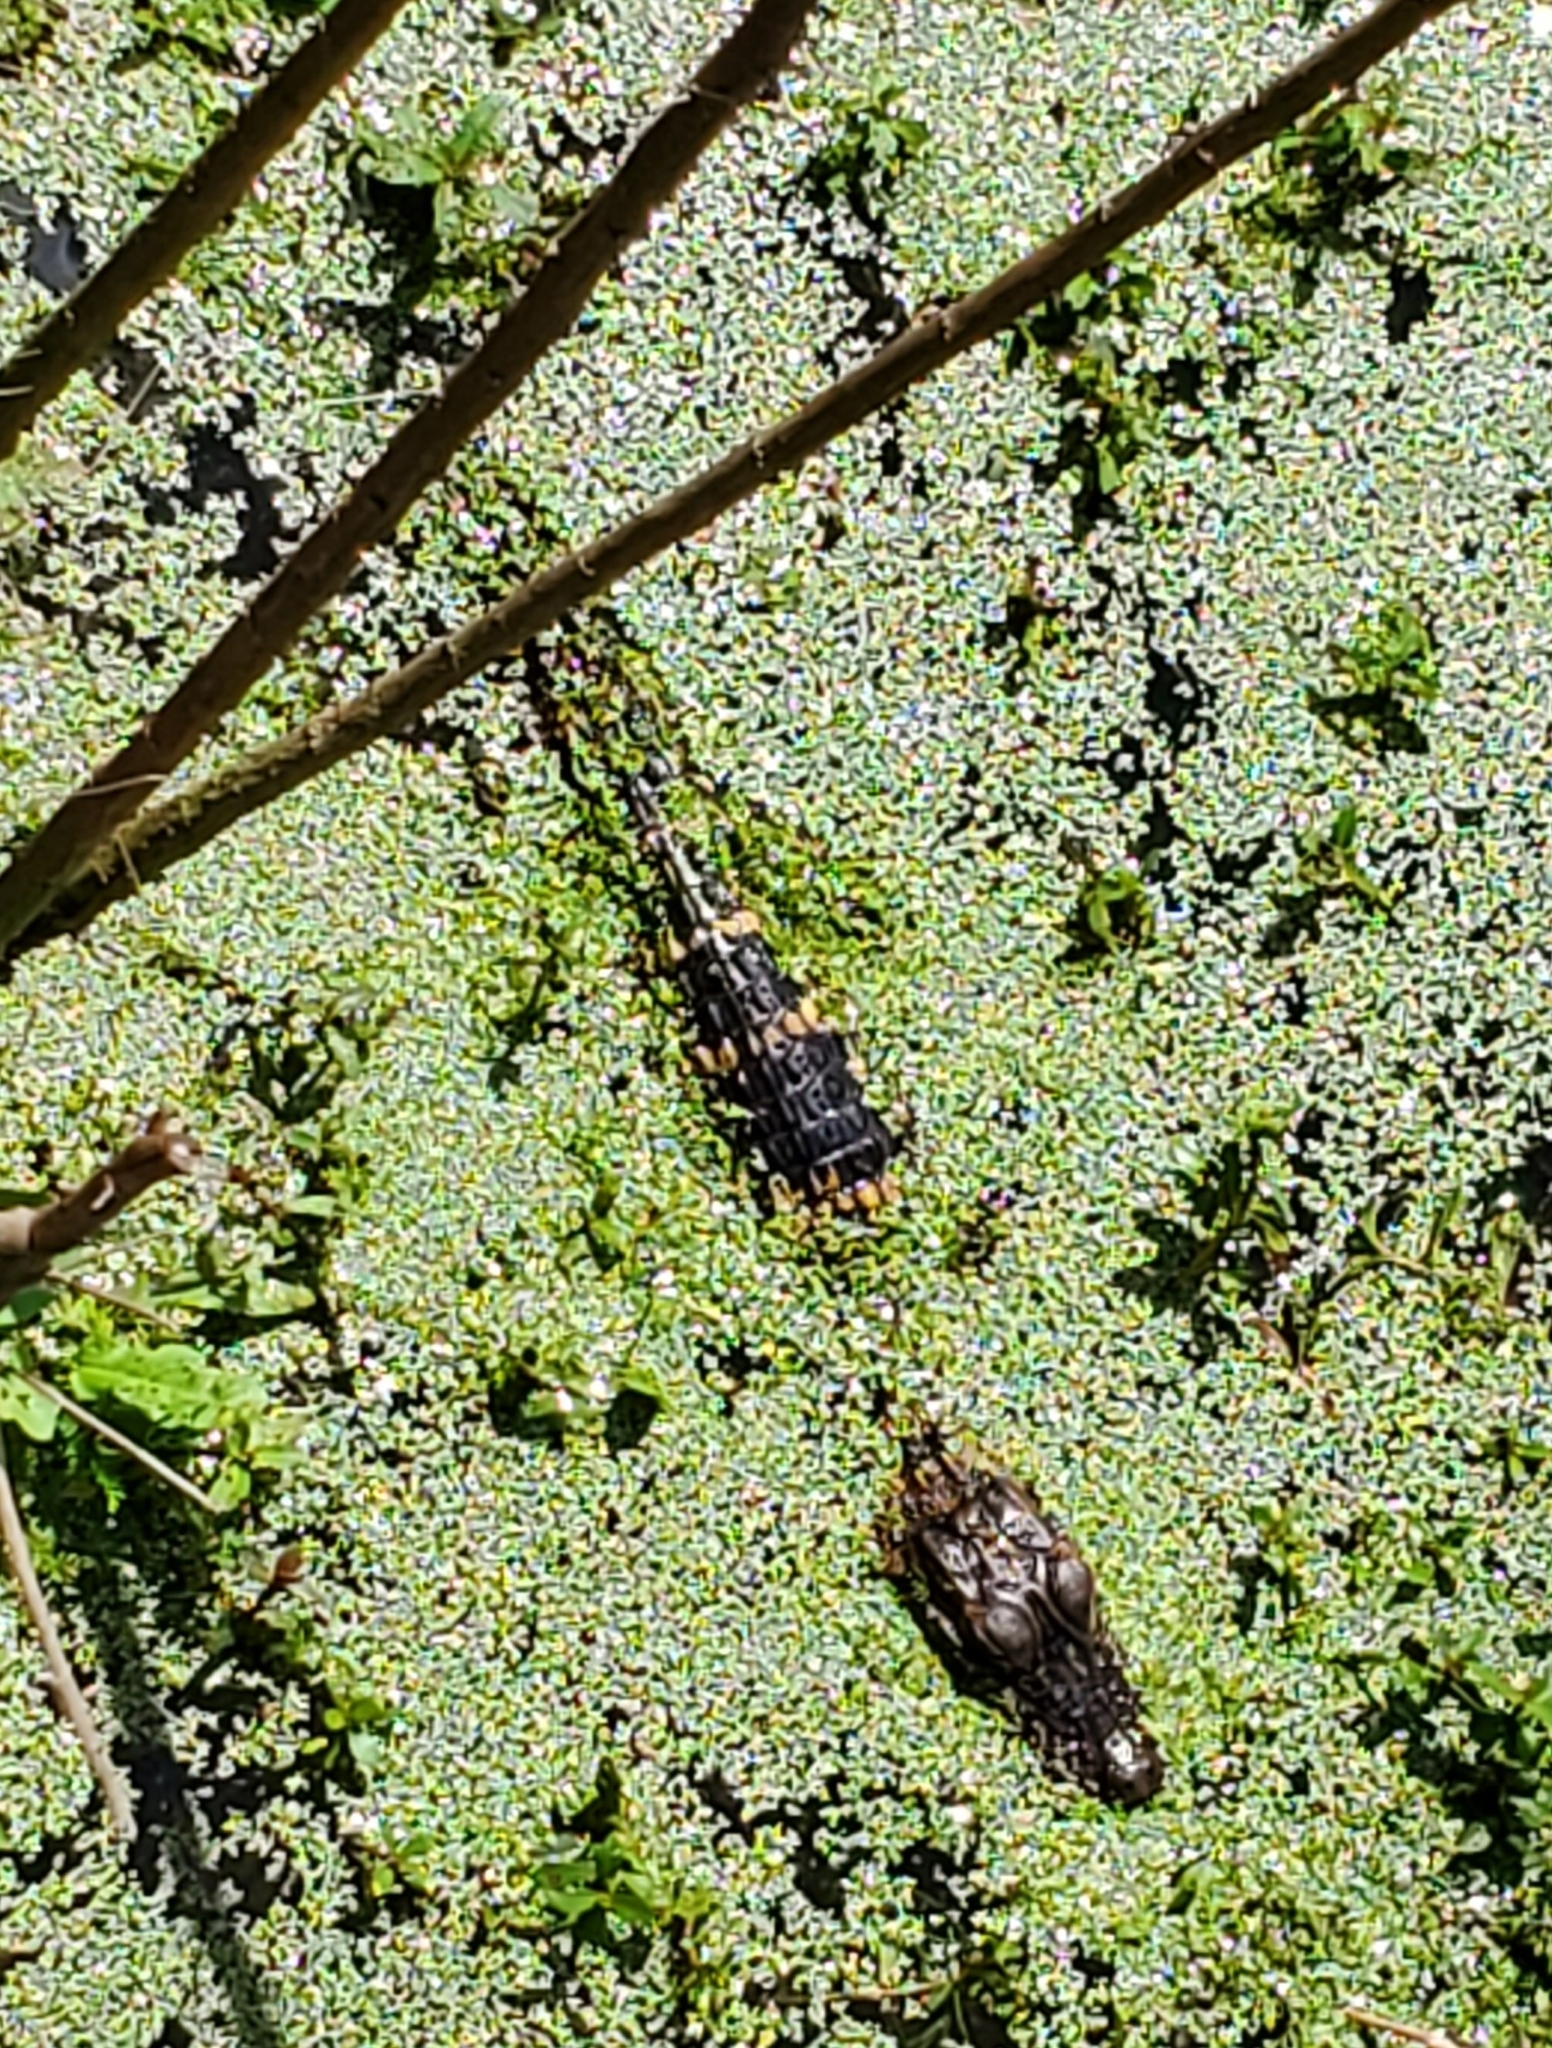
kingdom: Animalia
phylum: Chordata
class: Crocodylia
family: Alligatoridae
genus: Alligator
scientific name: Alligator mississippiensis
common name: American alligator
